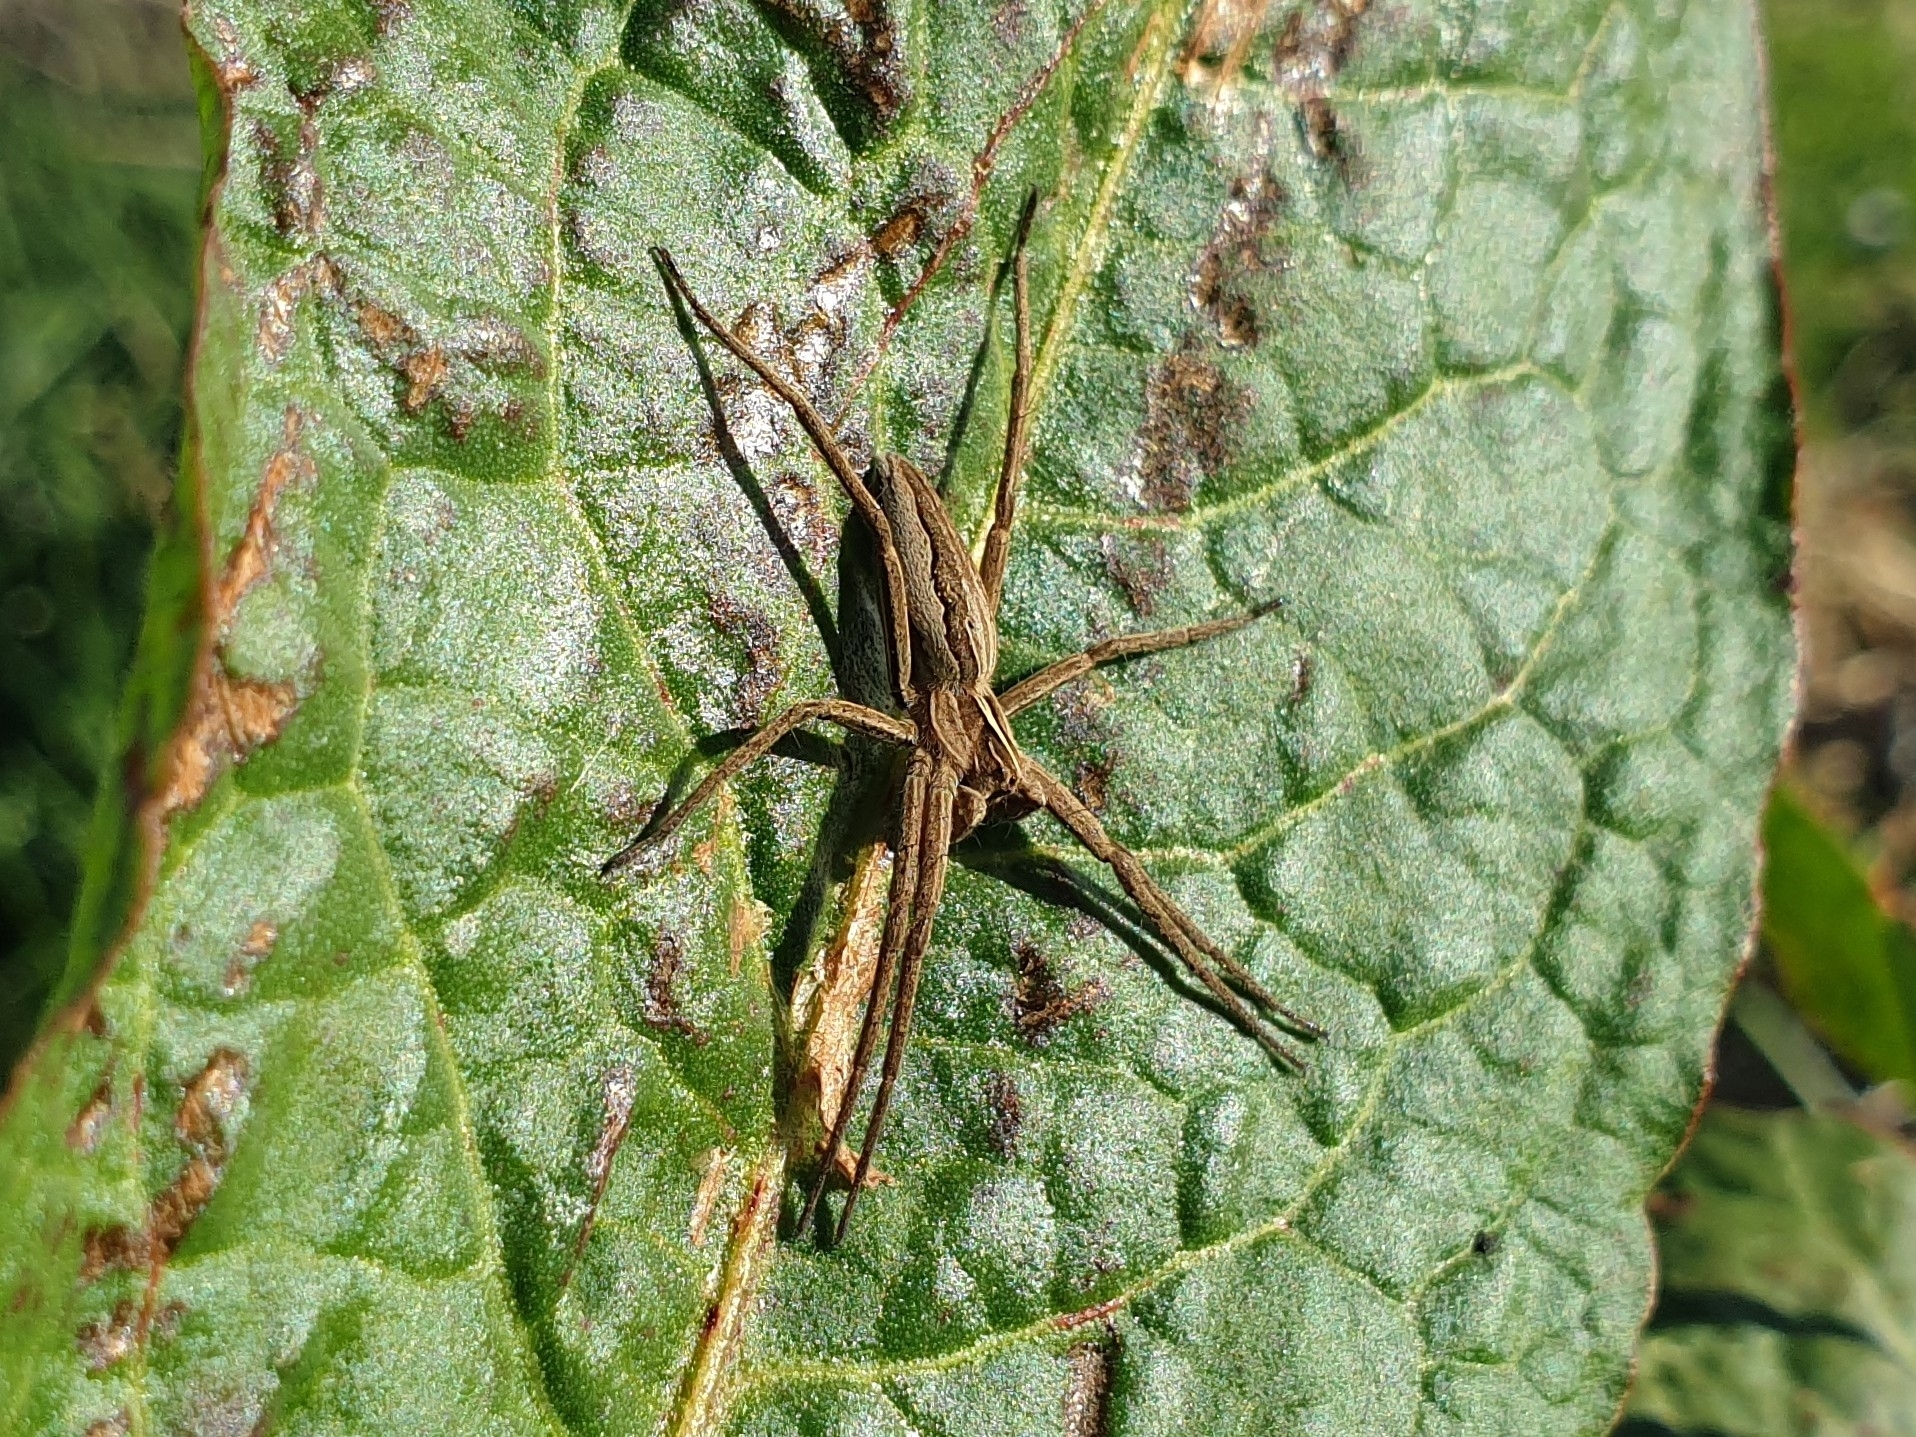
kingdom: Animalia
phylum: Arthropoda
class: Arachnida
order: Araneae
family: Pisauridae
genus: Pisaura
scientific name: Pisaura mirabilis
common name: Tent spider
